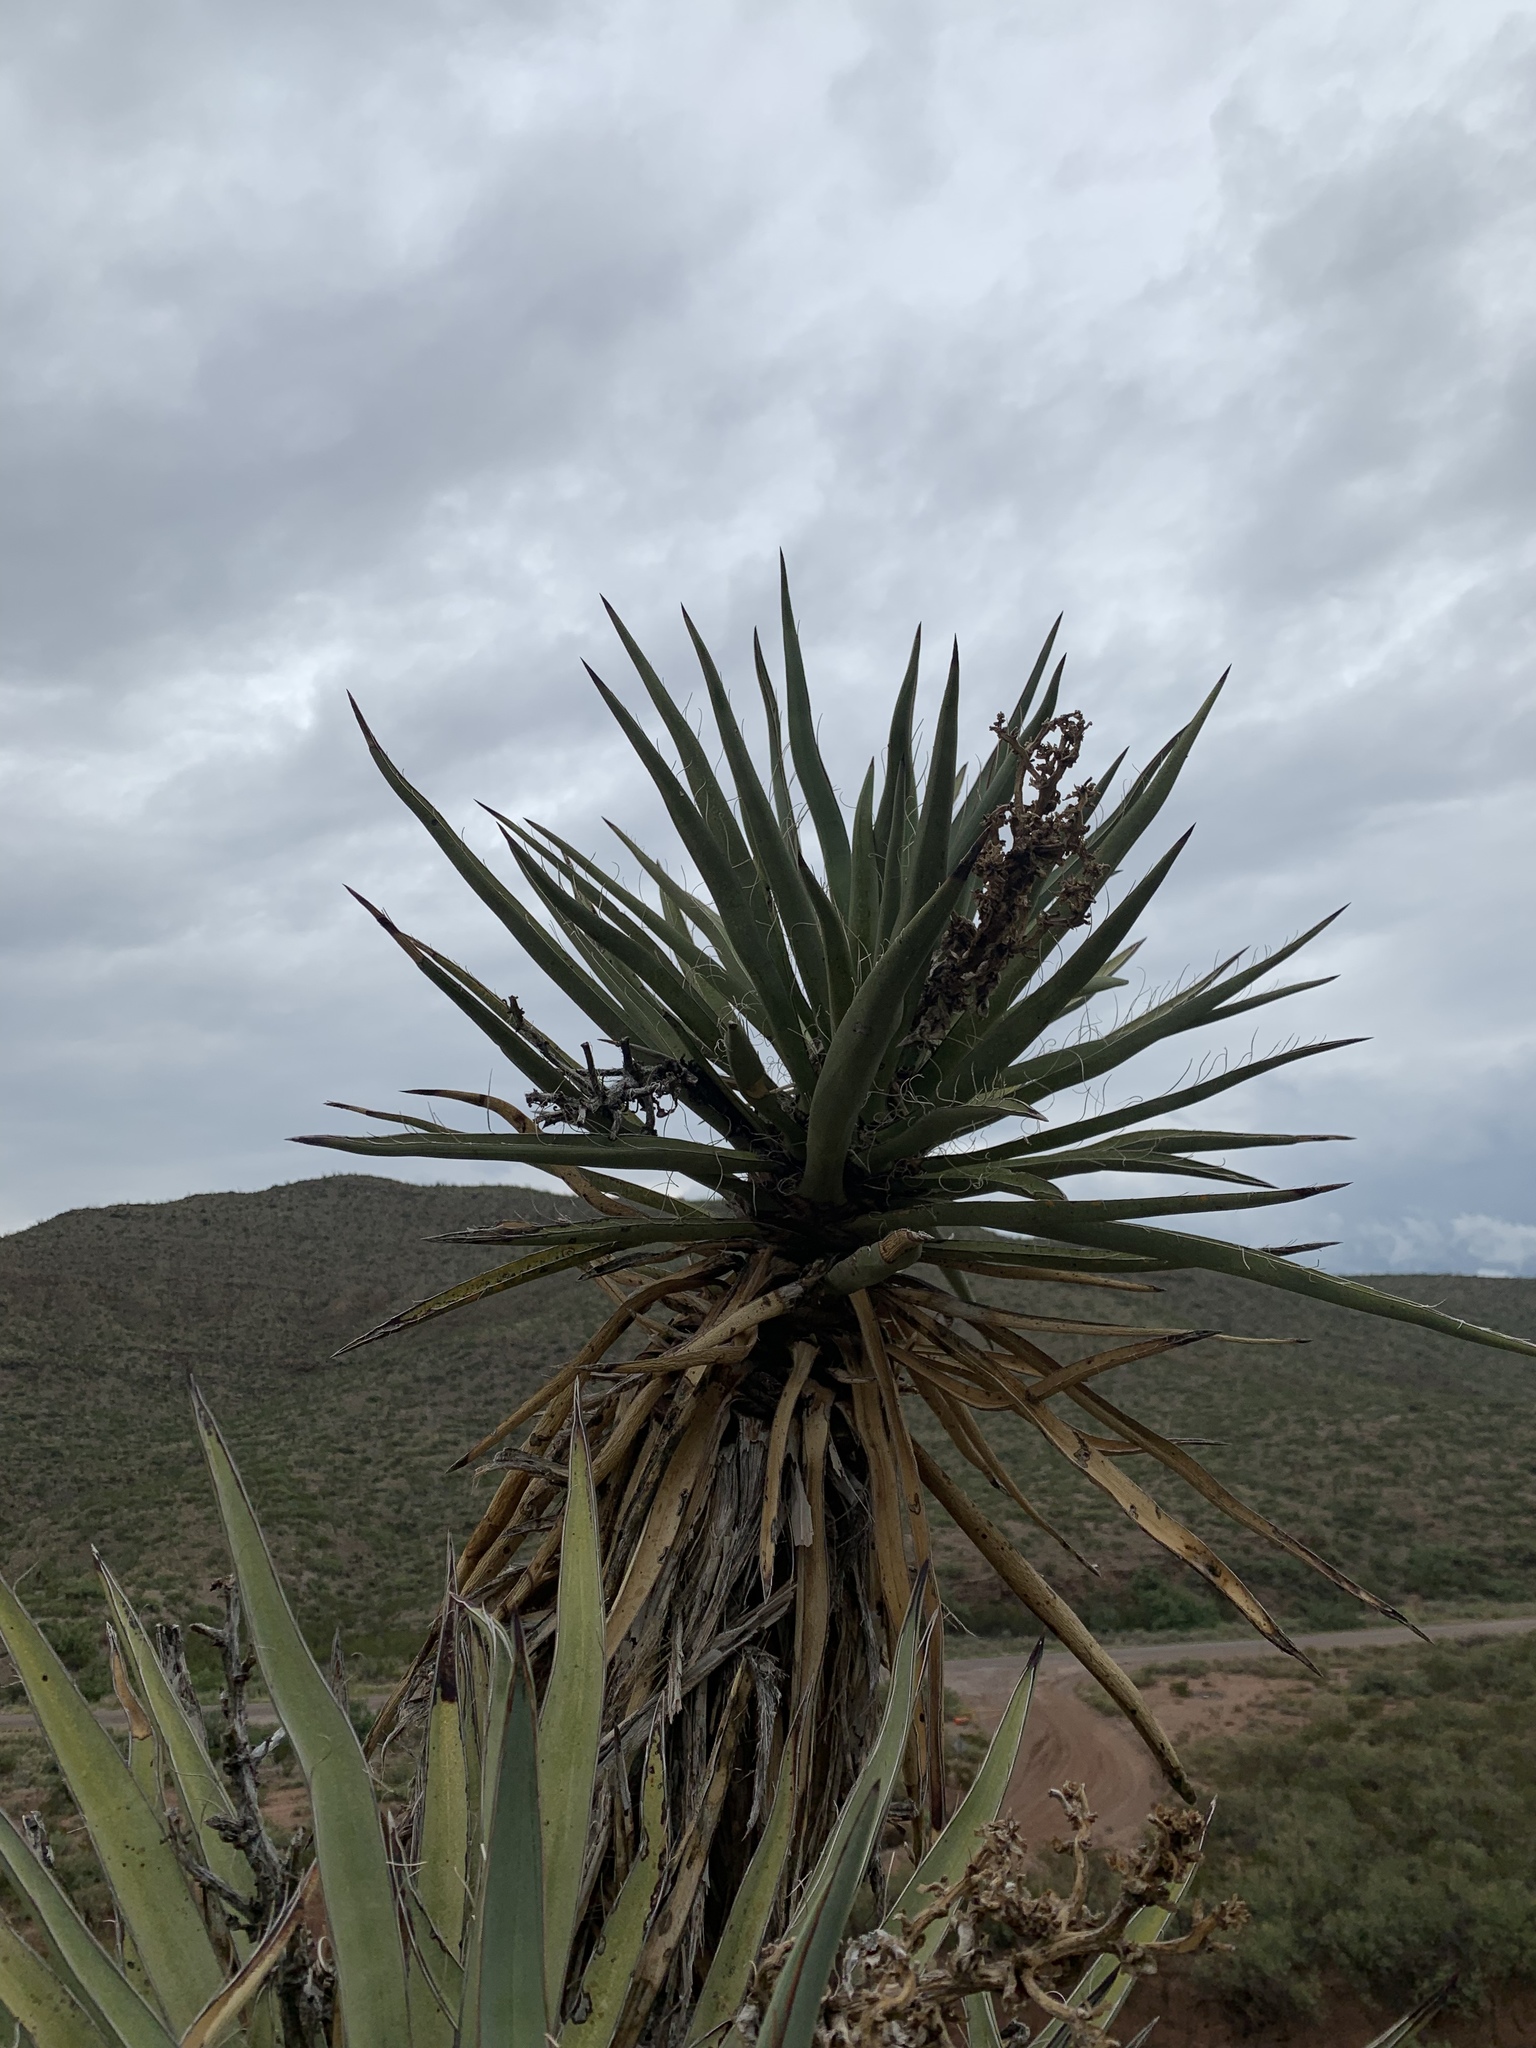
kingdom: Plantae
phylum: Tracheophyta
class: Liliopsida
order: Asparagales
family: Asparagaceae
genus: Yucca
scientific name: Yucca treculiana
